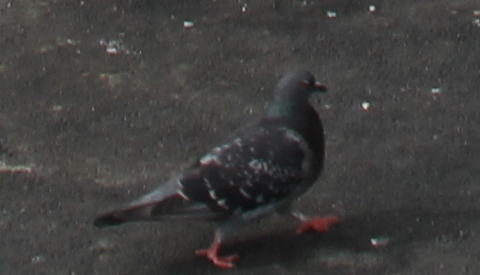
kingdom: Animalia
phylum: Chordata
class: Aves
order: Columbiformes
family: Columbidae
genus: Columba
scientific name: Columba livia
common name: Rock pigeon
